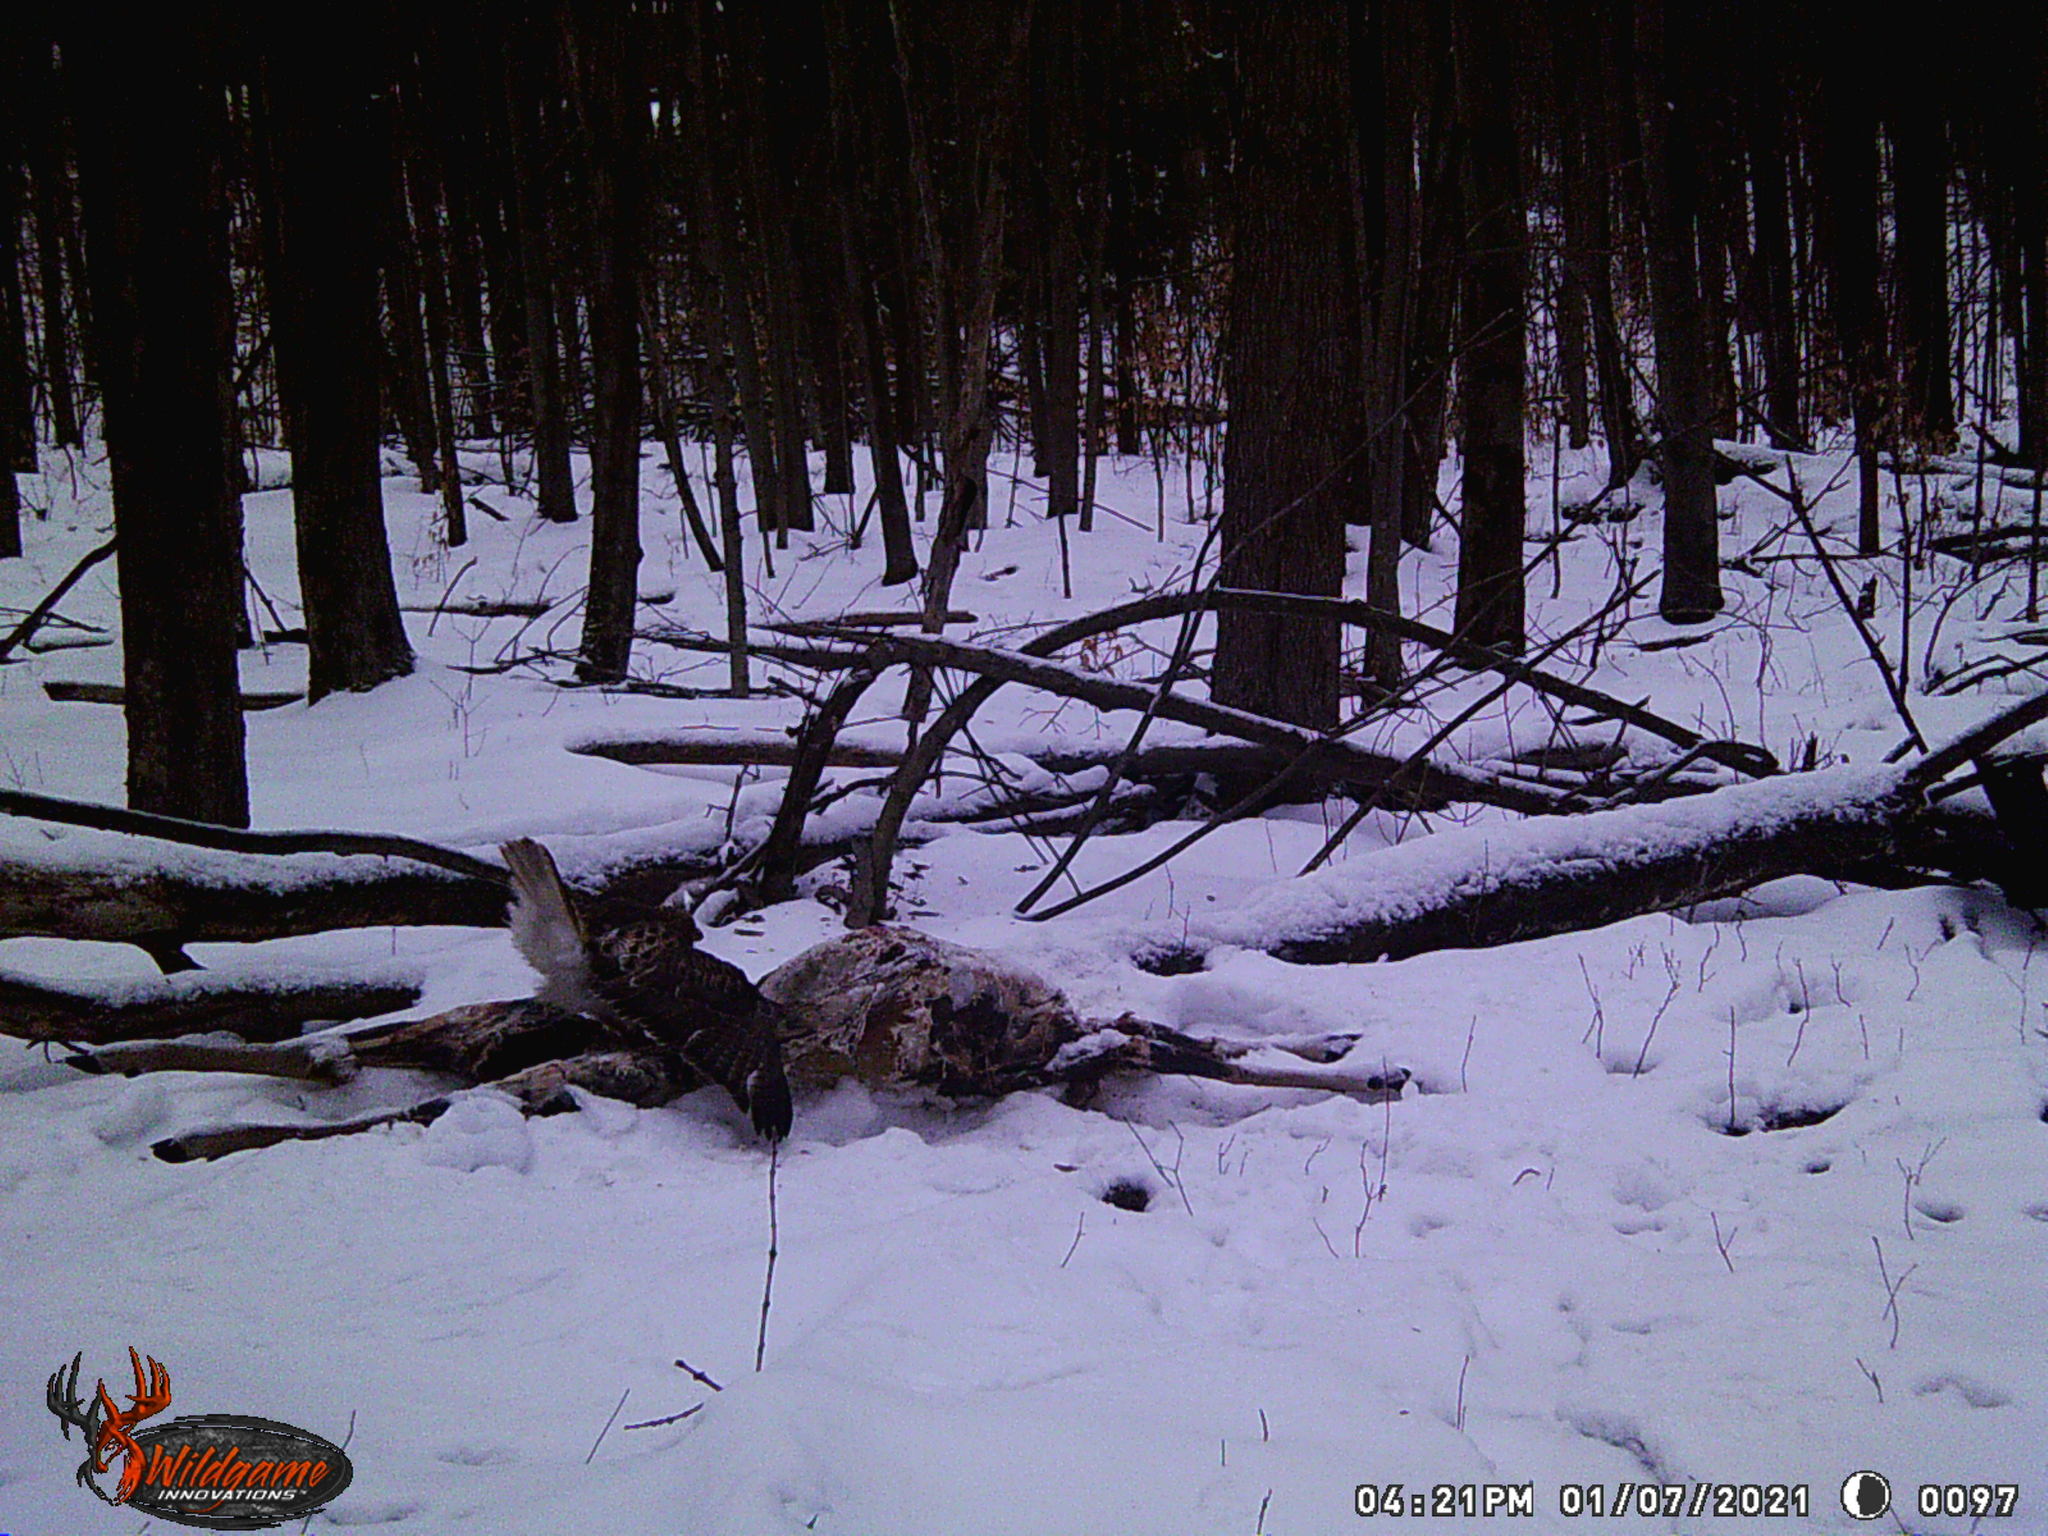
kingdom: Animalia
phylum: Chordata
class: Aves
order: Accipitriformes
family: Accipitridae
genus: Buteo
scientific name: Buteo jamaicensis
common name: Red-tailed hawk
